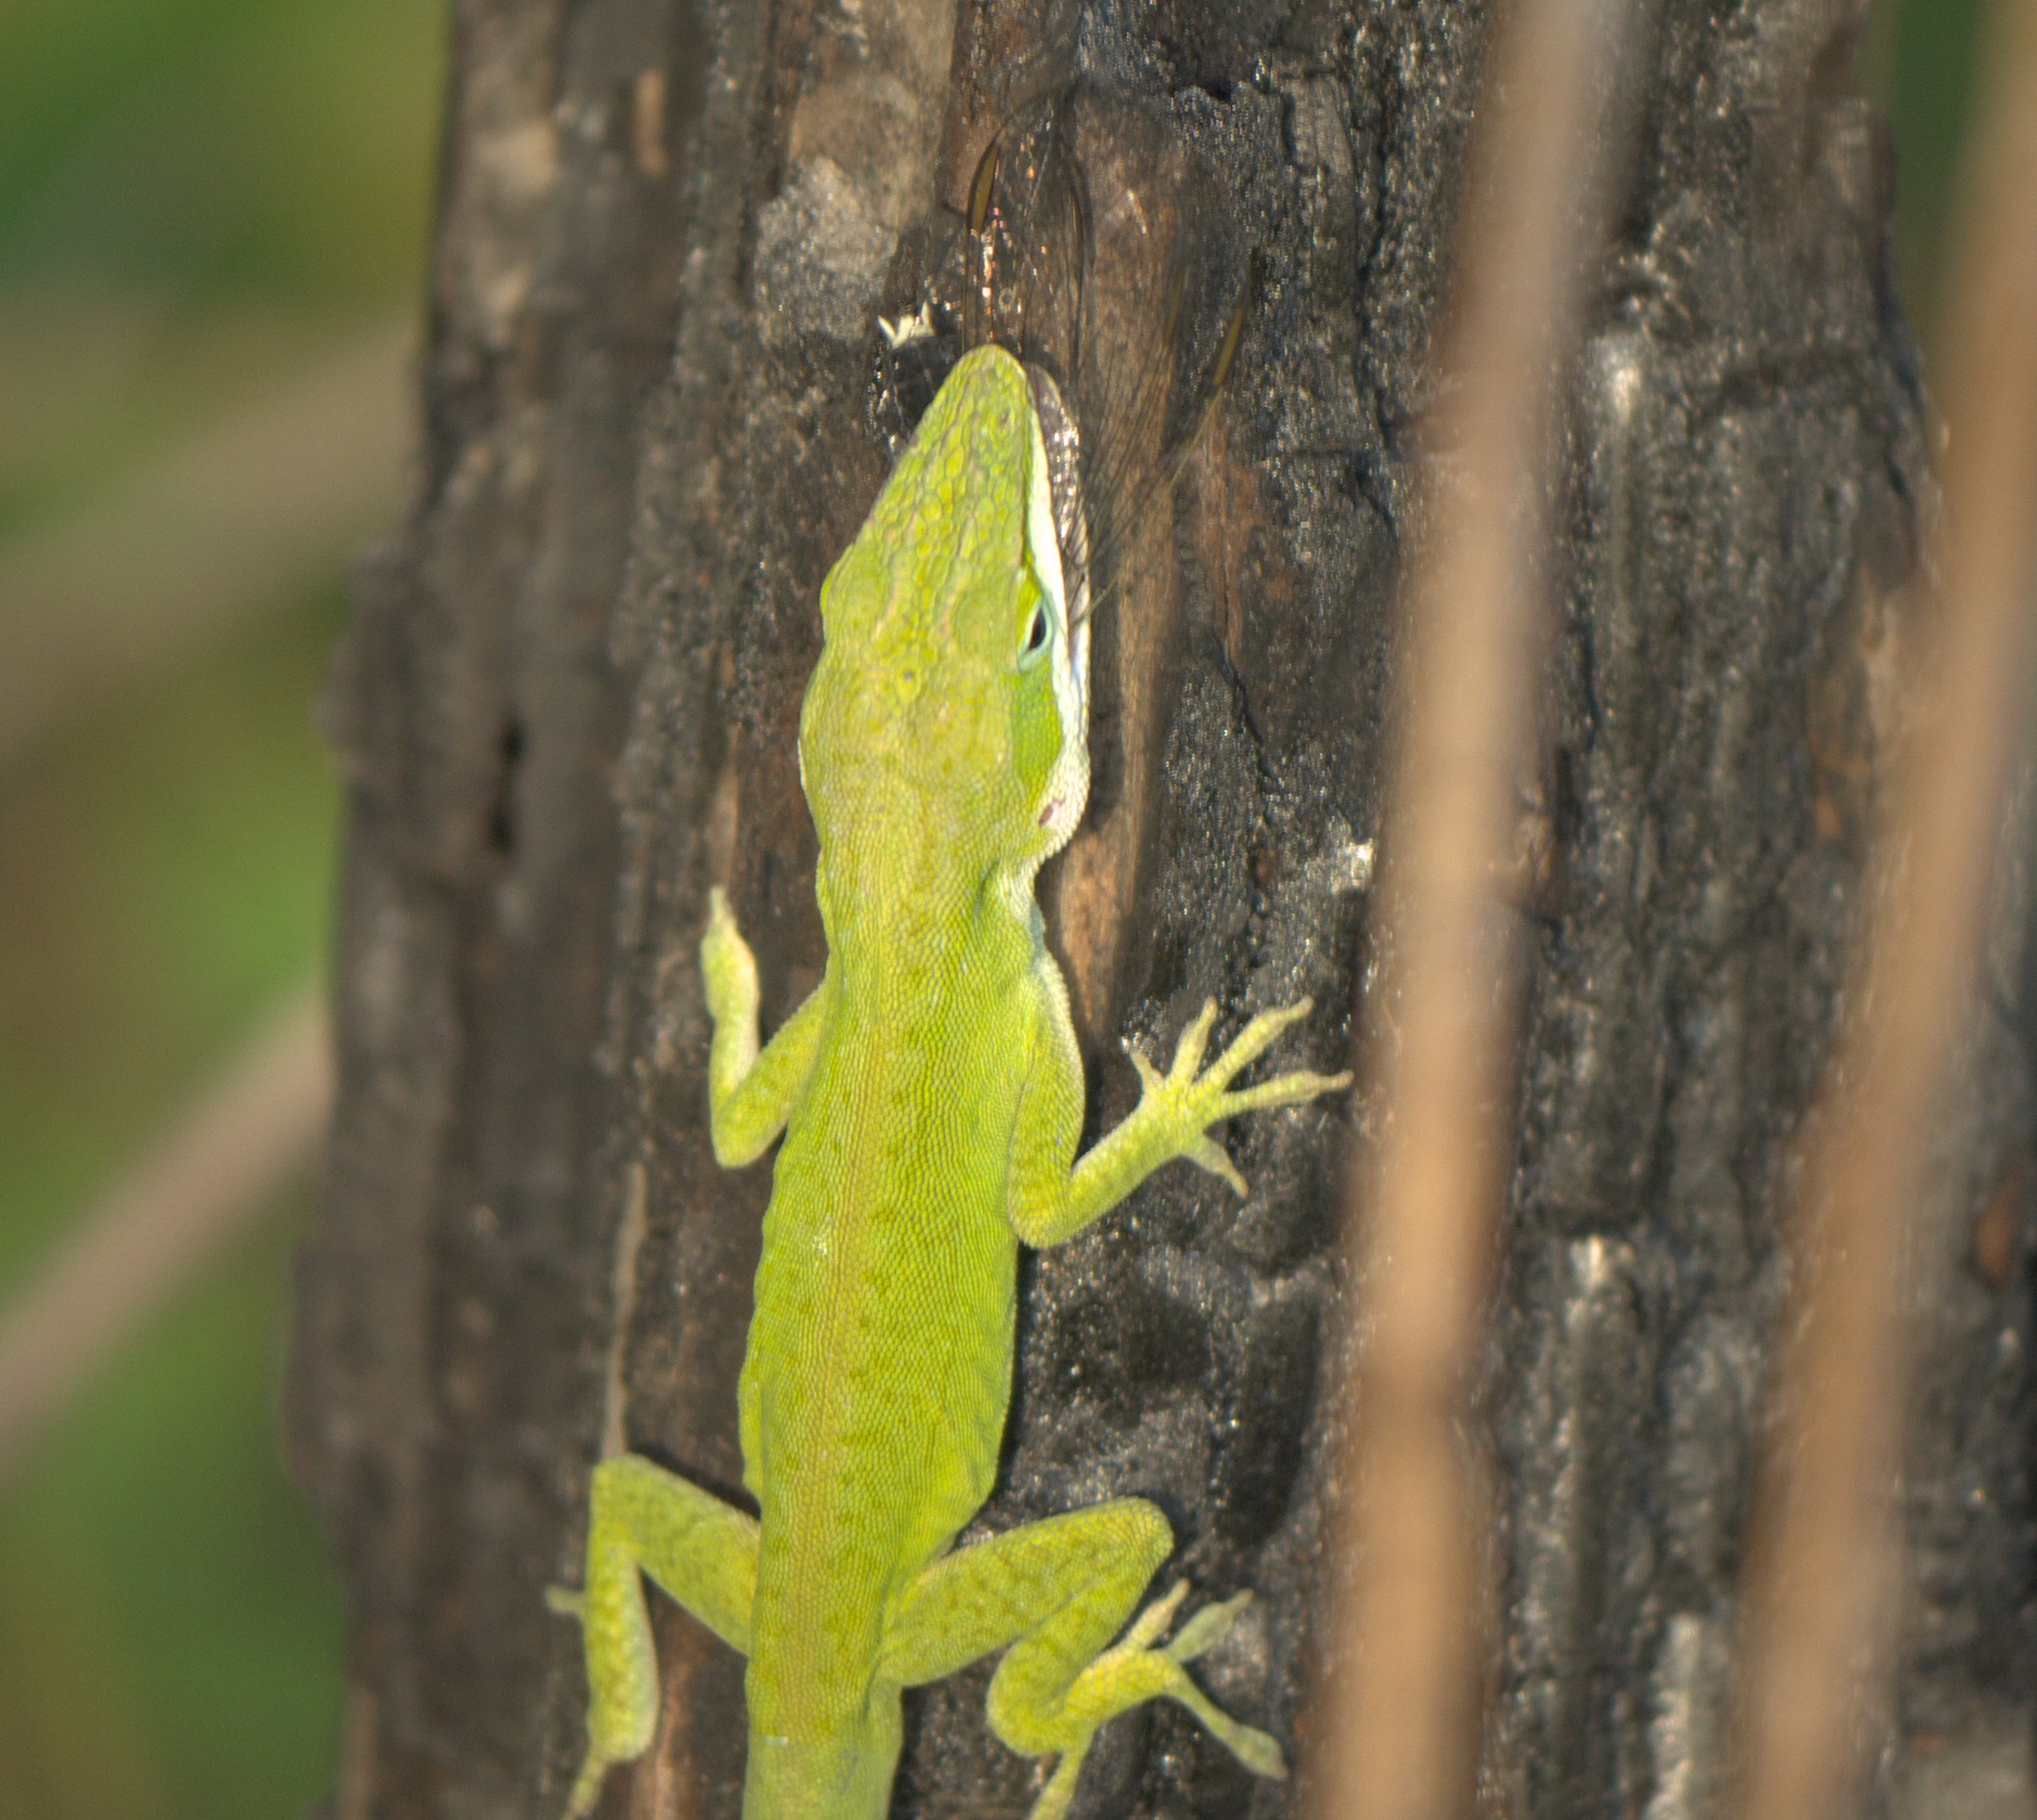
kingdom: Animalia
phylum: Chordata
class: Squamata
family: Dactyloidae
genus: Anolis
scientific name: Anolis carolinensis
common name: Green anole
